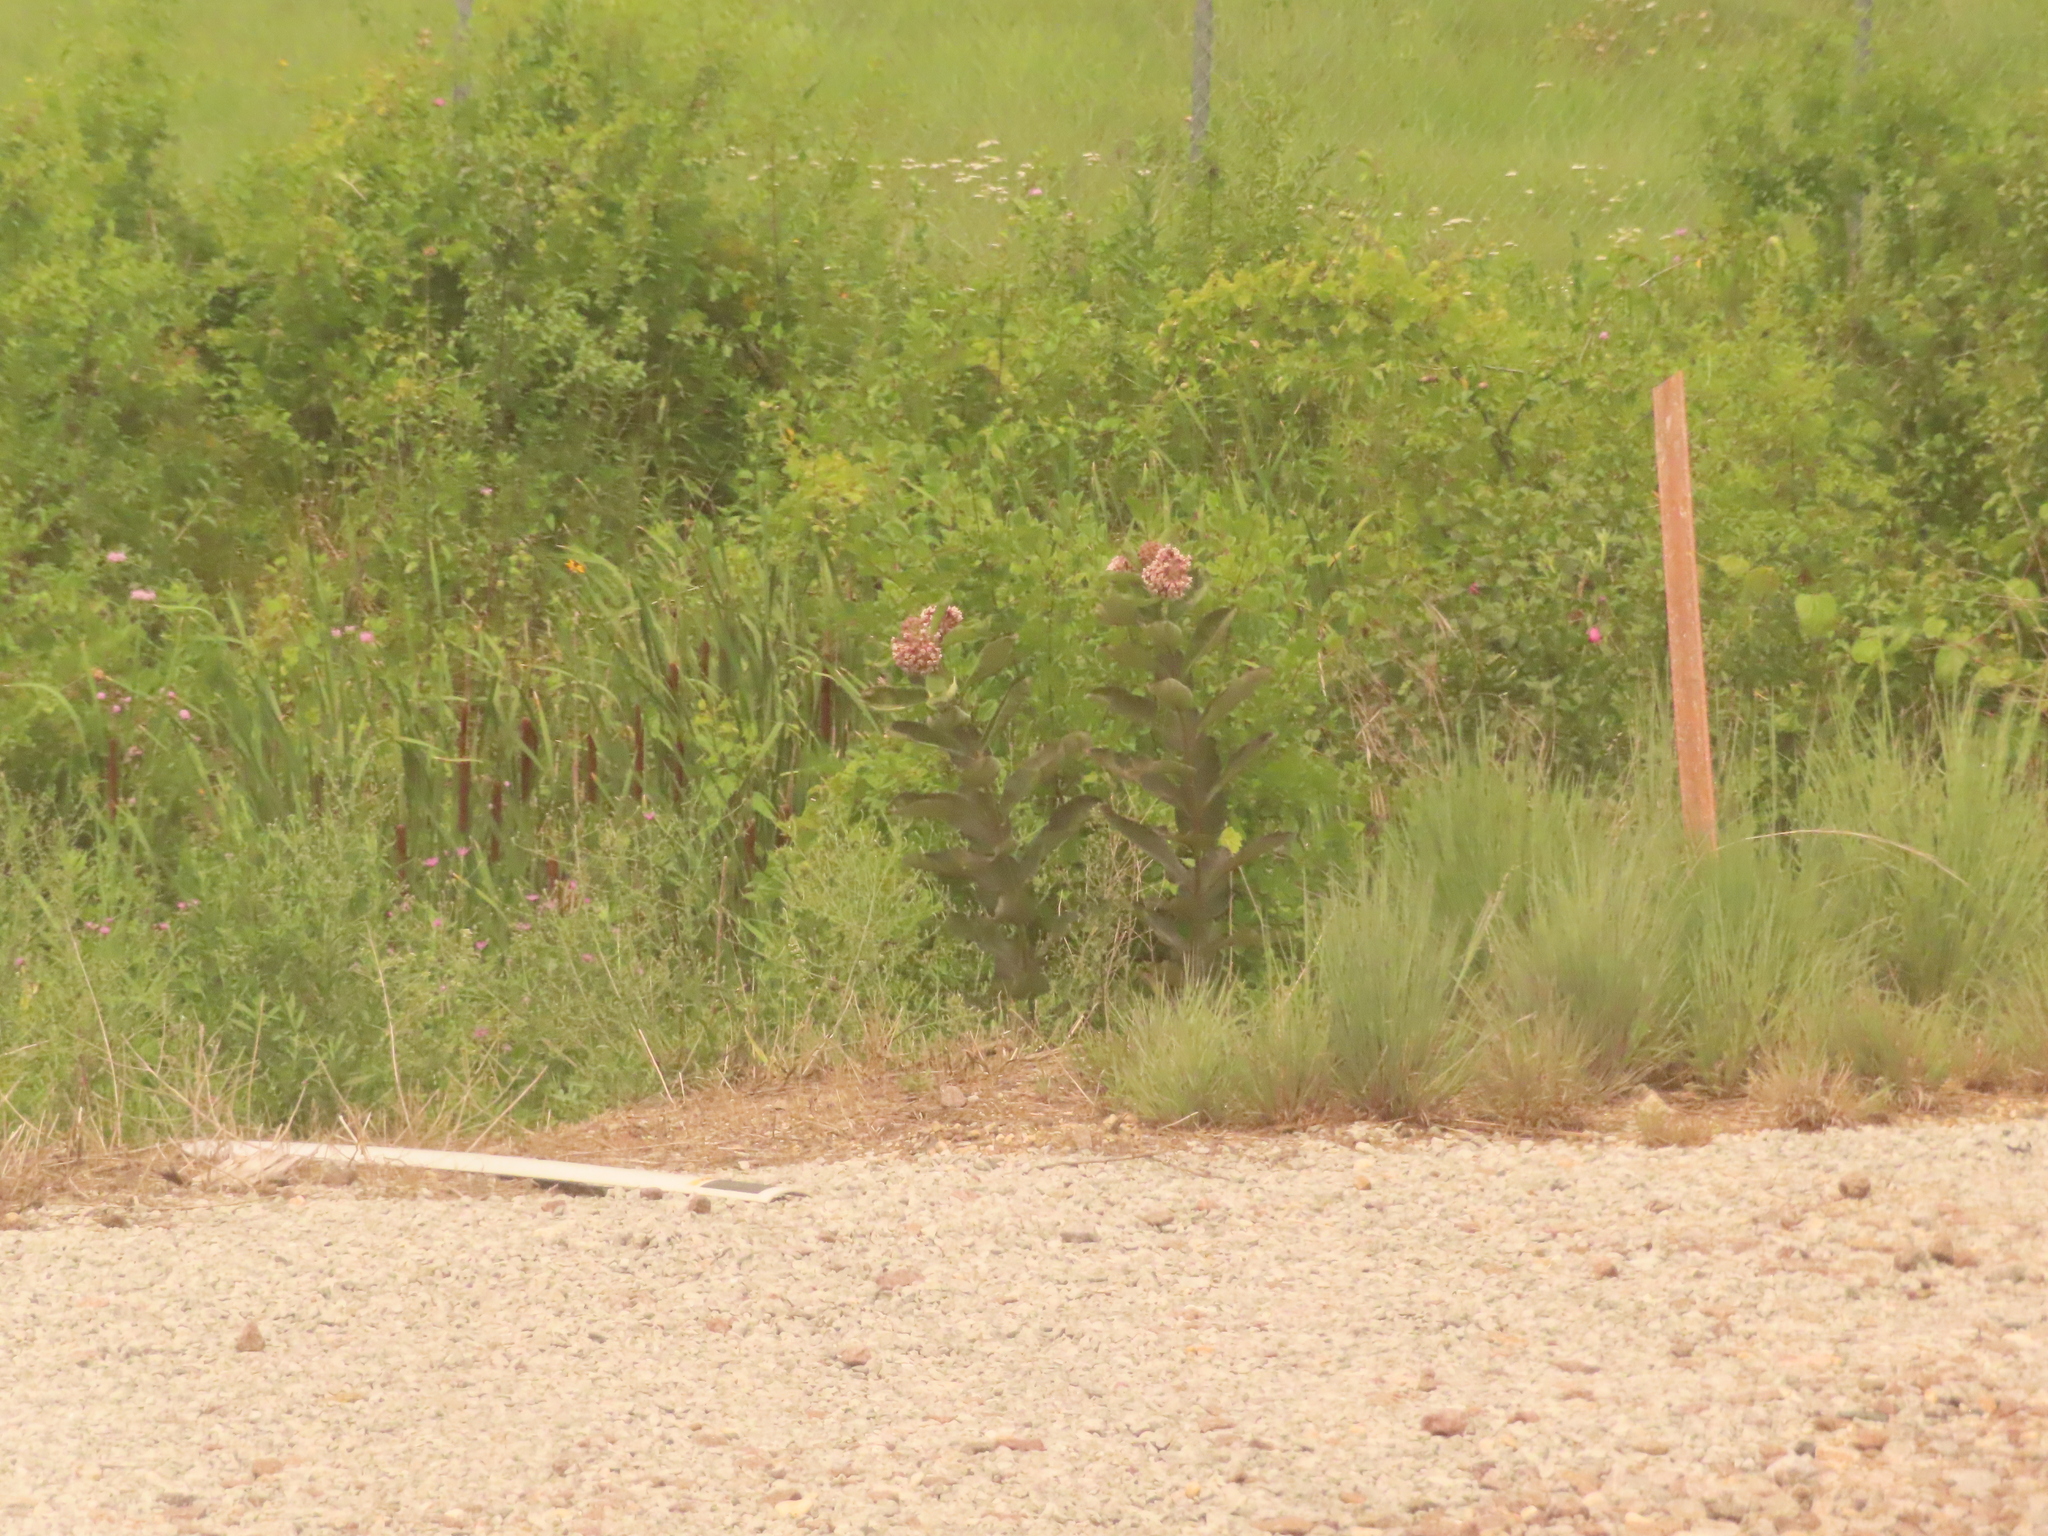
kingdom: Plantae
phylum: Tracheophyta
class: Magnoliopsida
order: Gentianales
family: Apocynaceae
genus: Asclepias
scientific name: Asclepias syriaca
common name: Common milkweed
